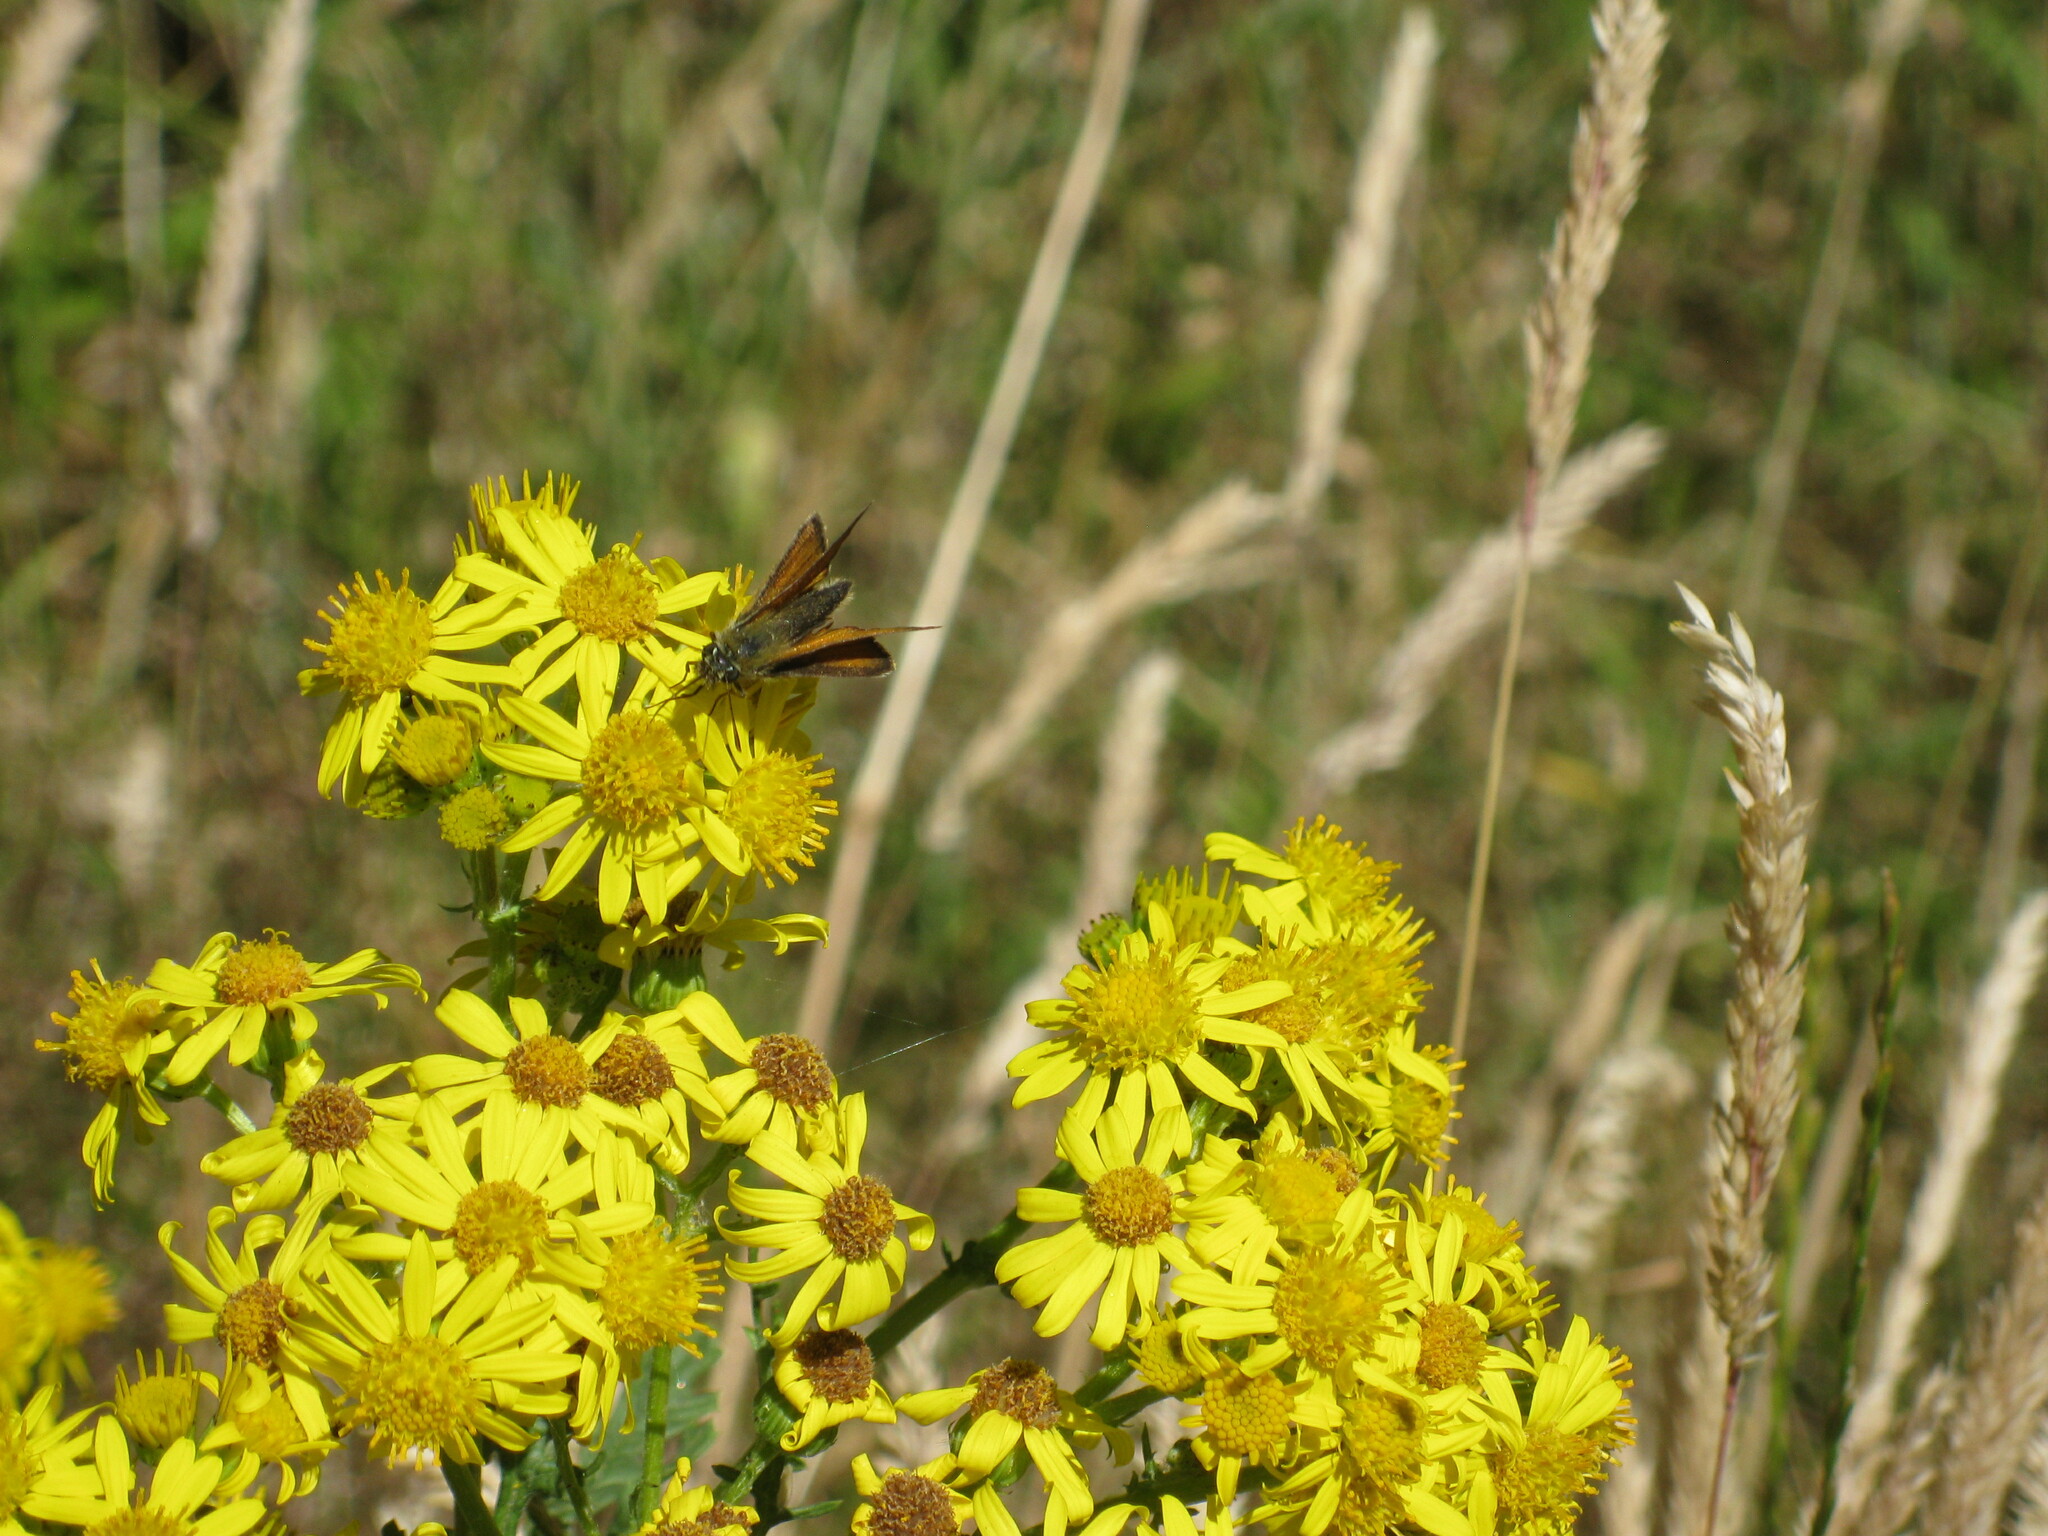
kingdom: Animalia
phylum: Arthropoda
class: Insecta
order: Lepidoptera
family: Hesperiidae
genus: Thymelicus
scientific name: Thymelicus sylvestris
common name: Small skipper
